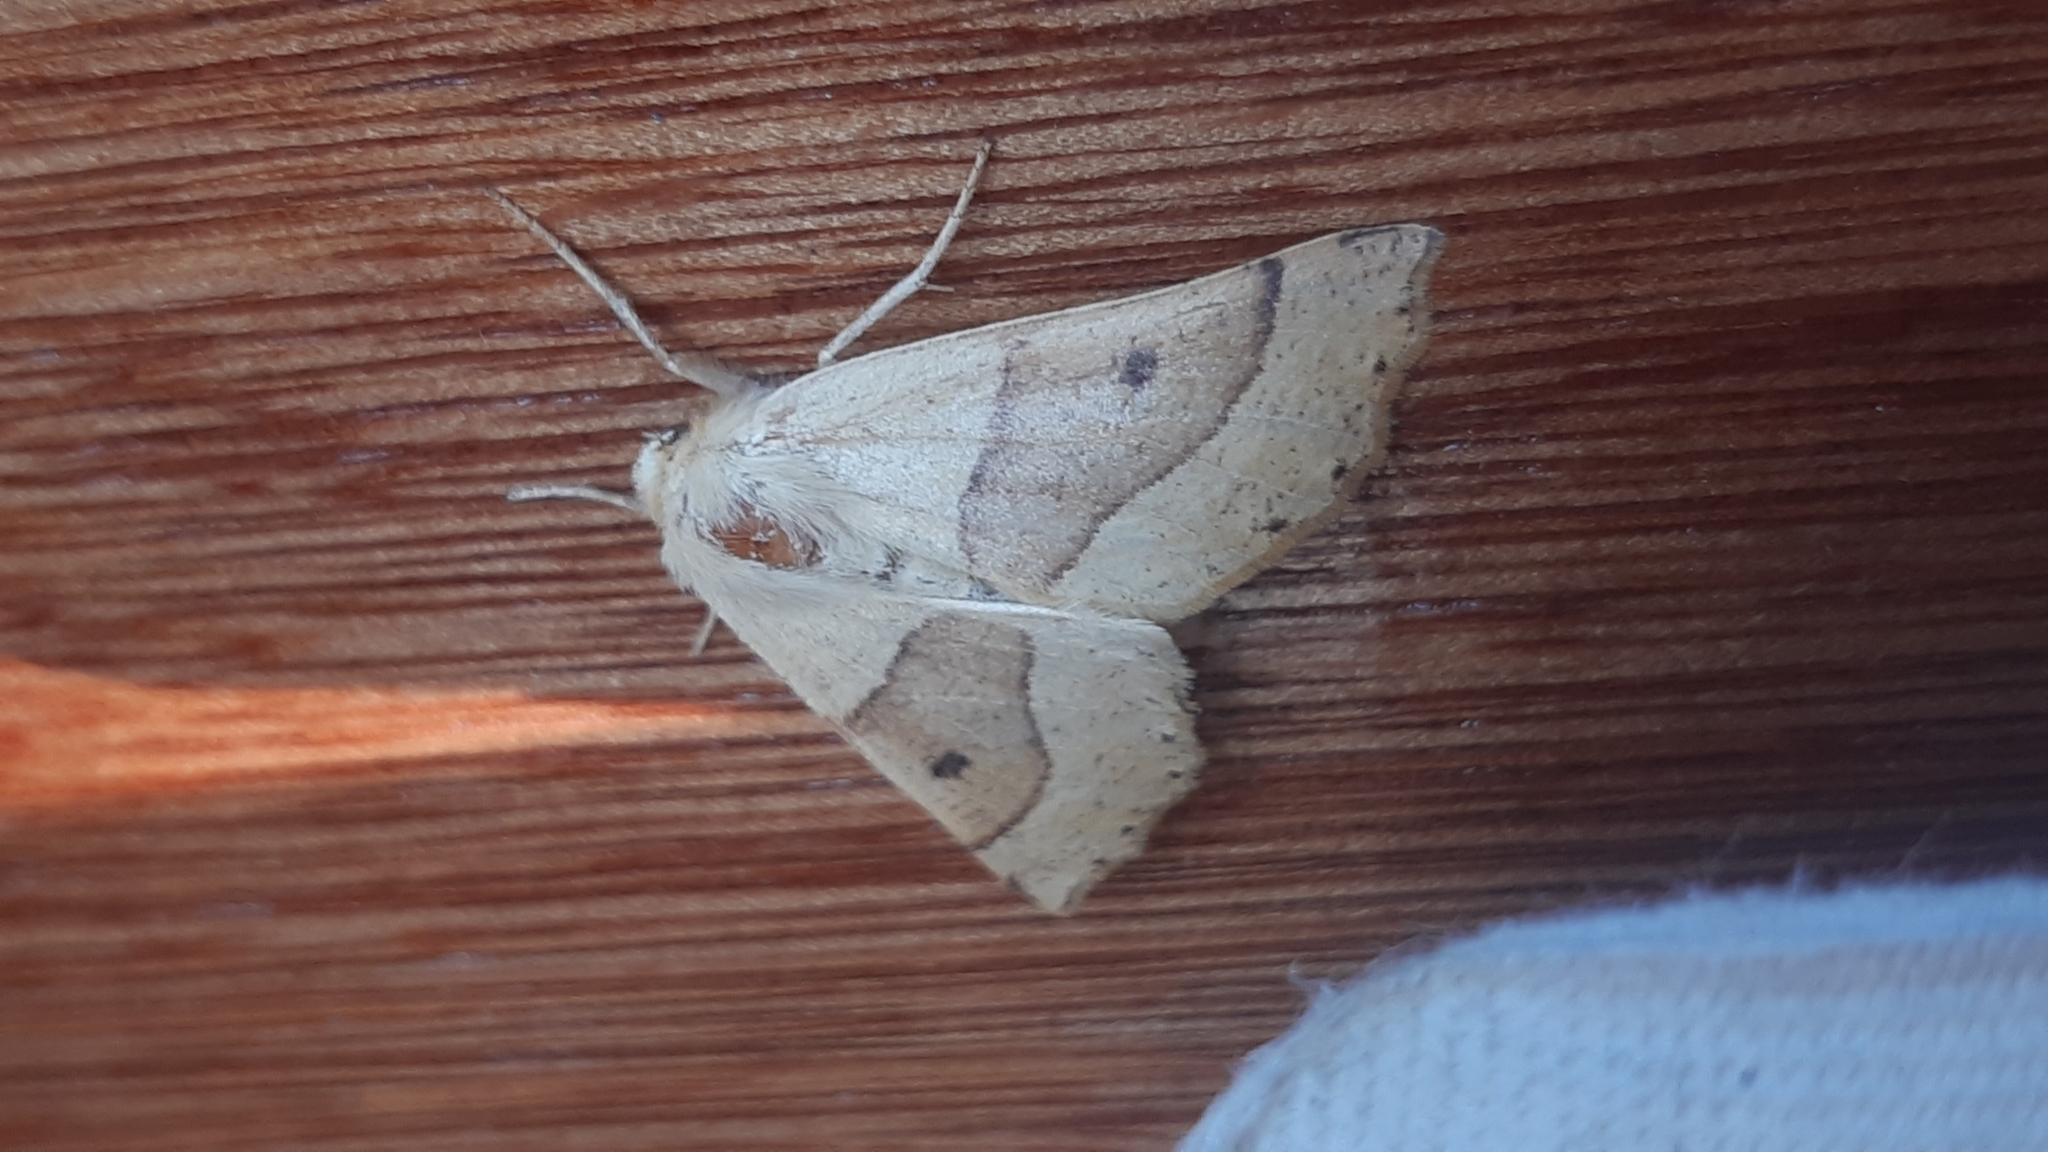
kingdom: Animalia
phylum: Arthropoda
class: Insecta
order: Lepidoptera
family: Geometridae
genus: Crocallis
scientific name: Crocallis elinguaria
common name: Scalloped oak
